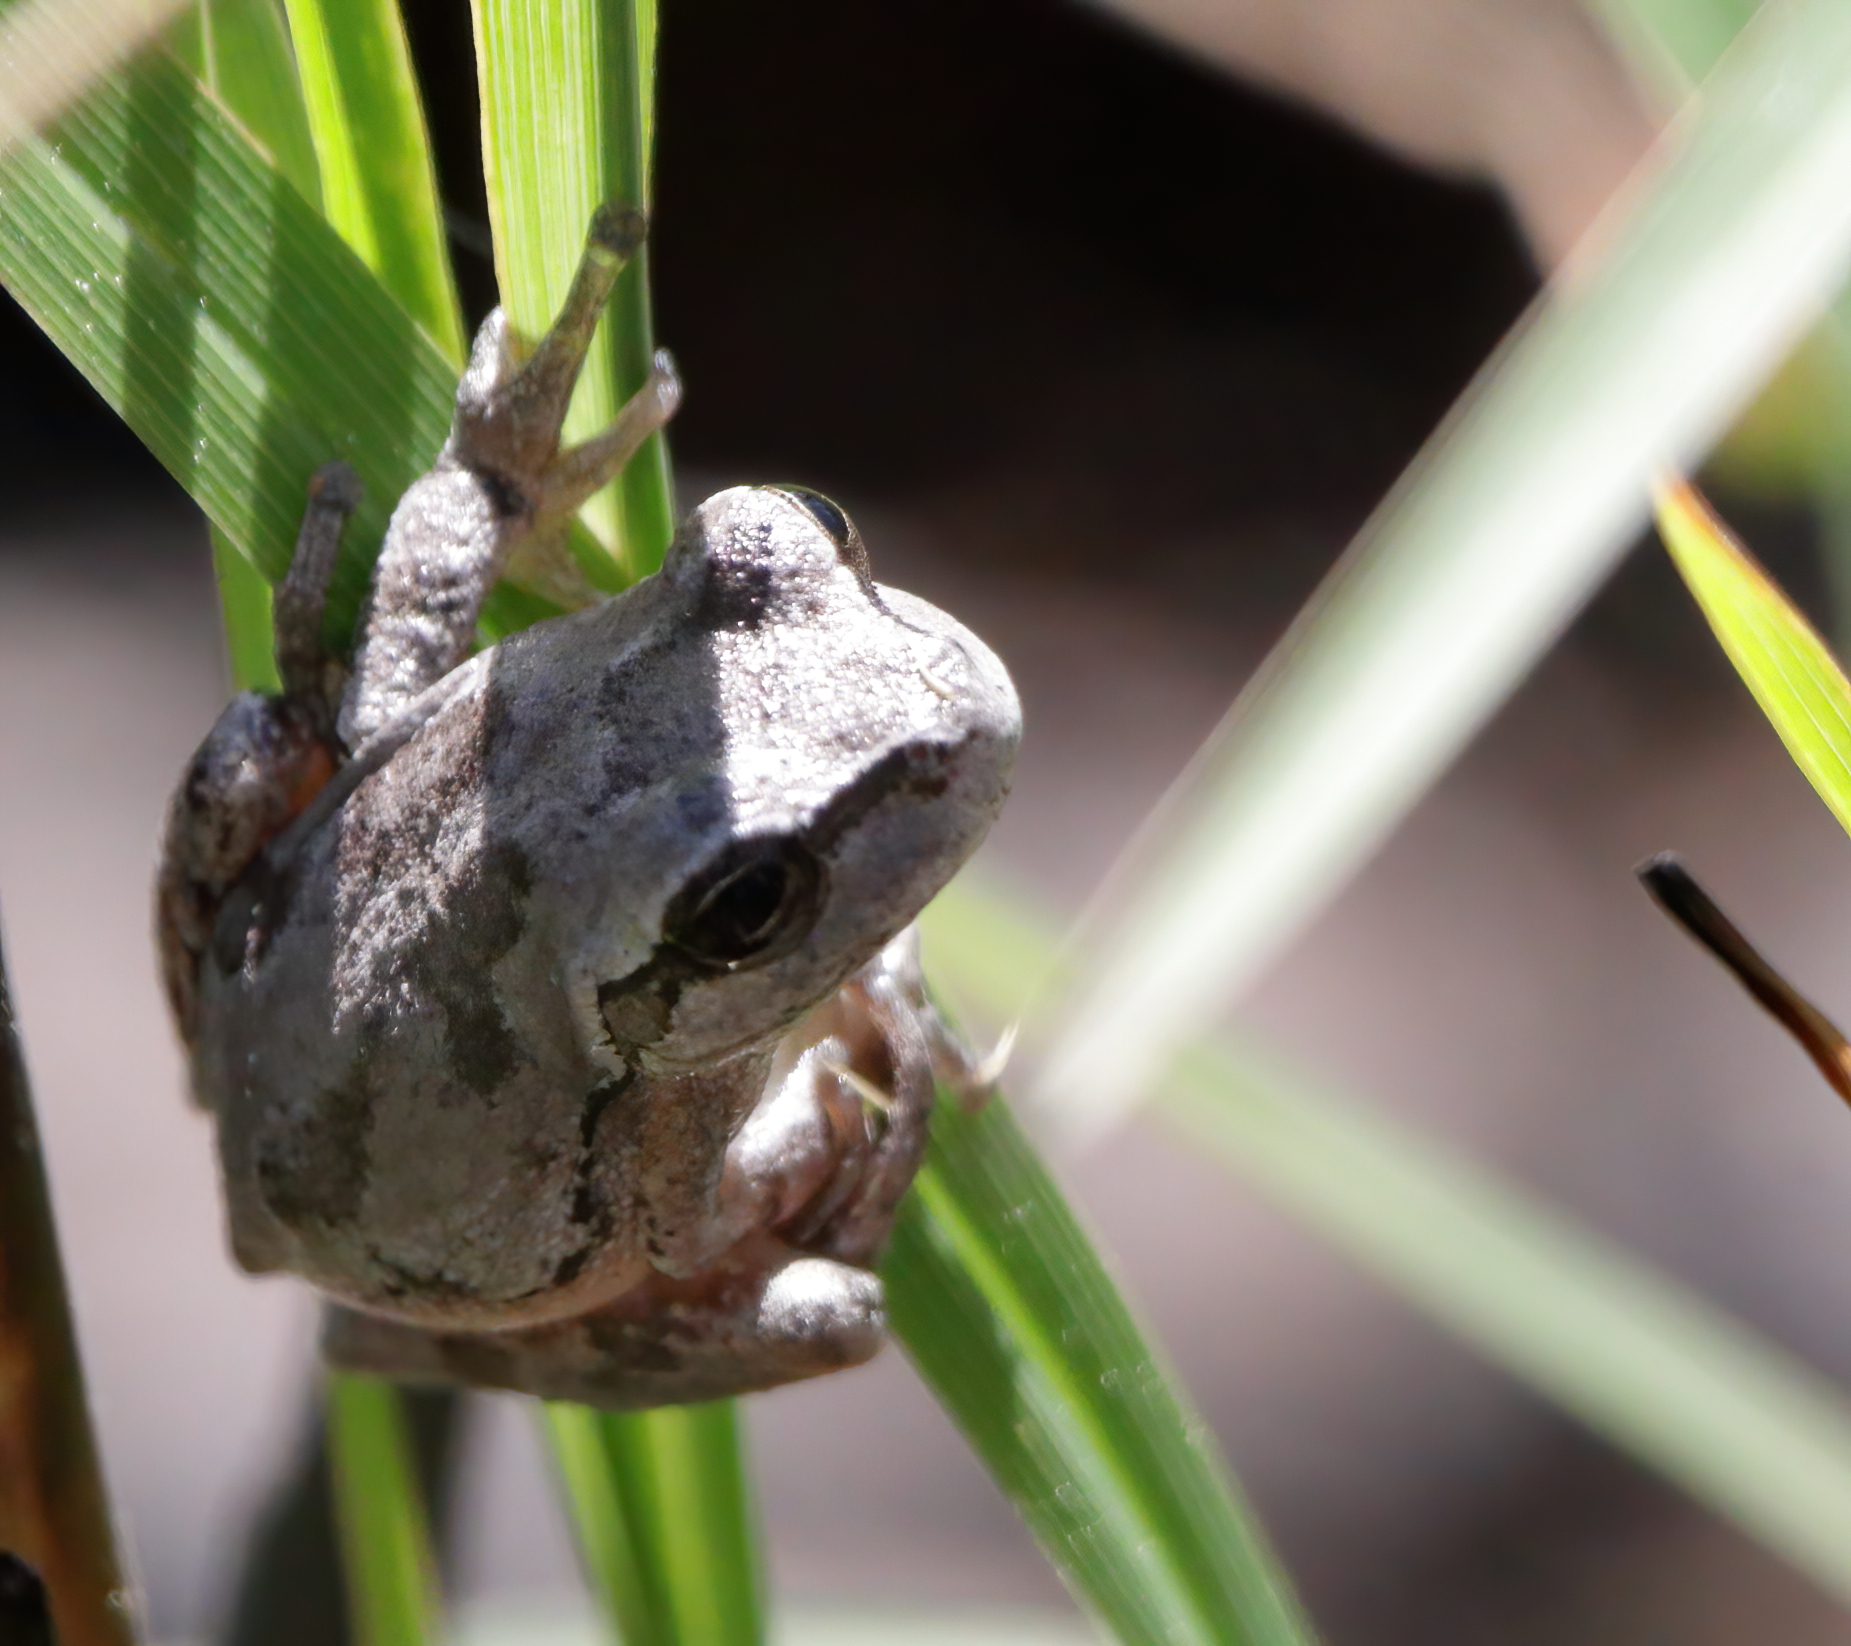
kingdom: Animalia
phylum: Chordata
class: Amphibia
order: Anura
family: Hylidae
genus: Hyla
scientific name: Hyla femoralis
